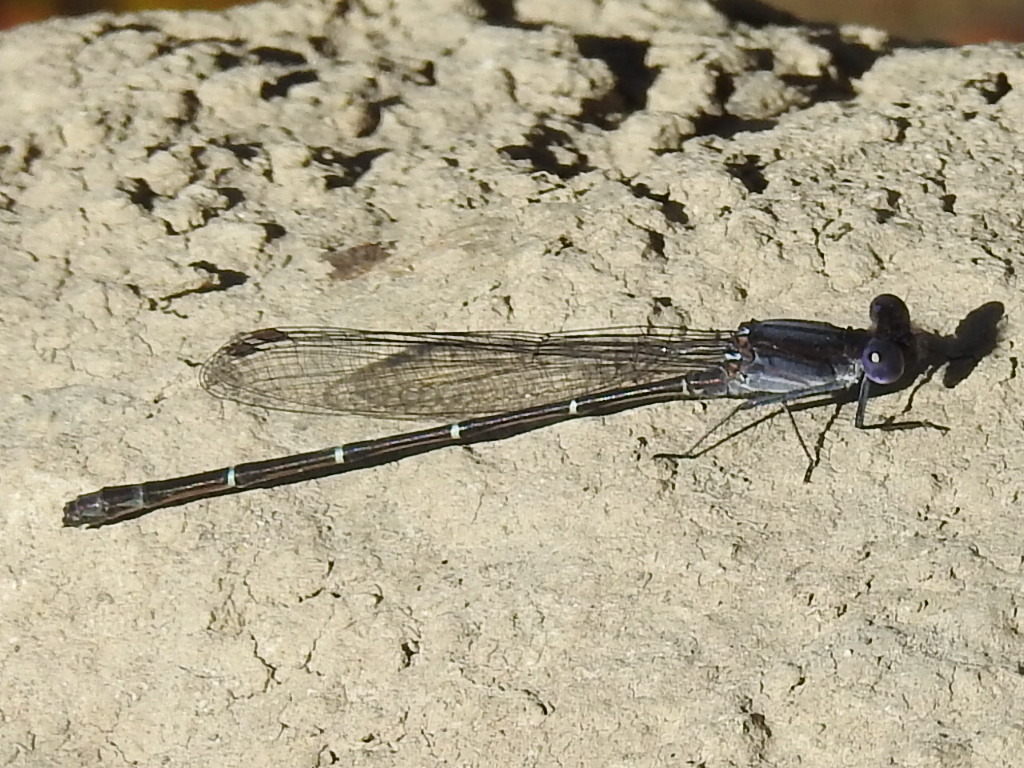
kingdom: Animalia
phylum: Arthropoda
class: Insecta
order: Odonata
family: Coenagrionidae
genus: Argia
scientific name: Argia translata
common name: Dusky dancer
